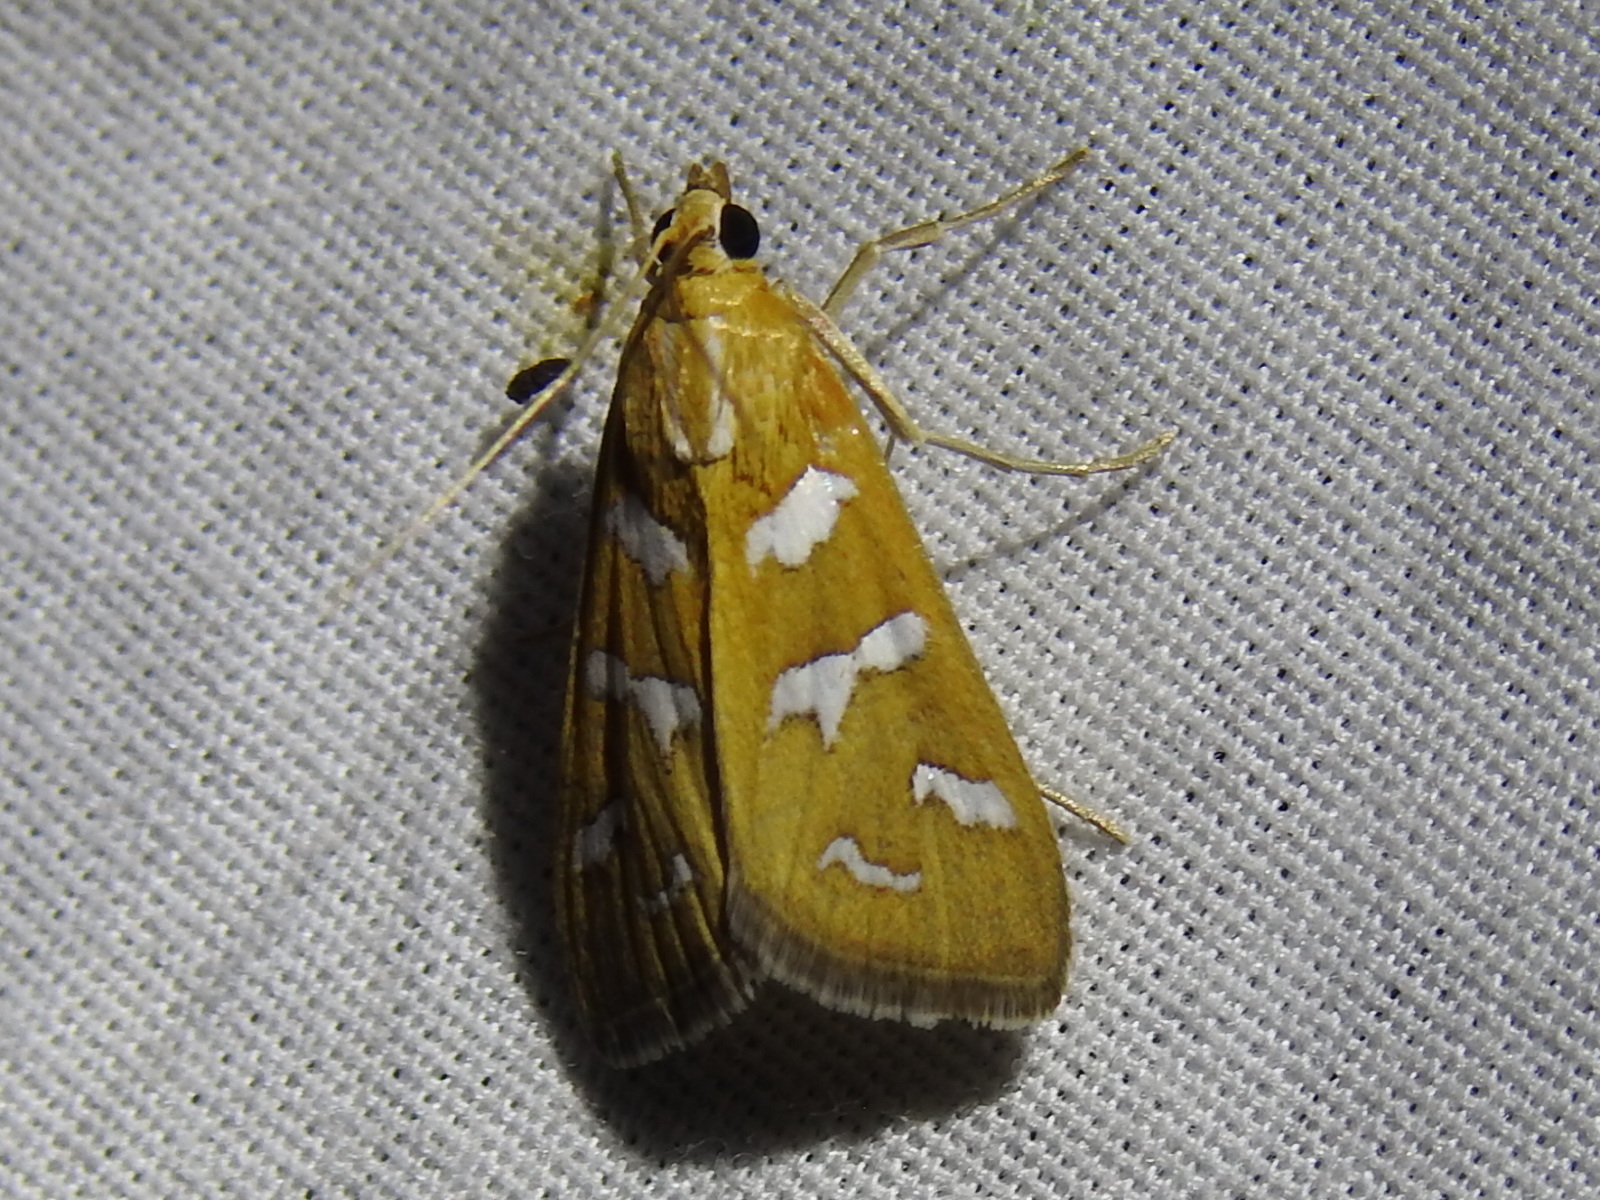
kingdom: Animalia
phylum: Arthropoda
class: Insecta
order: Lepidoptera
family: Crambidae
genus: Diastictis
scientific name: Diastictis fracturalis
